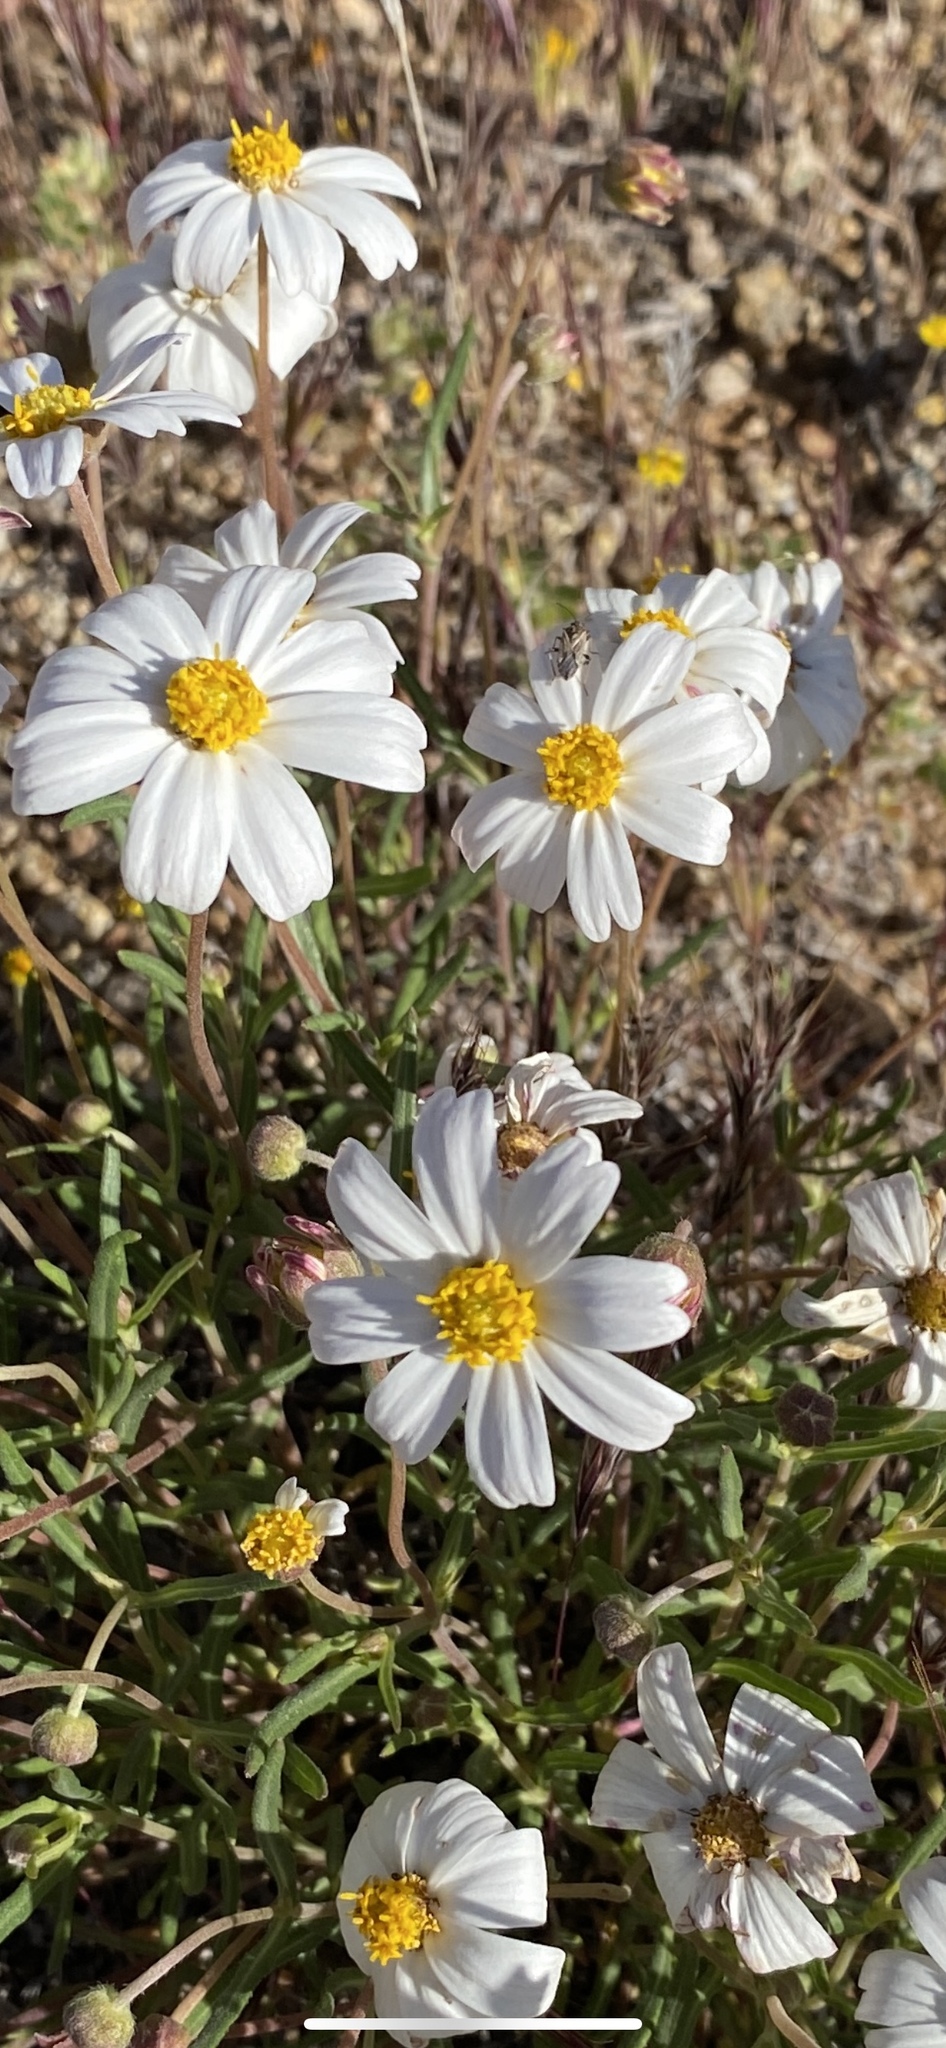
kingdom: Plantae
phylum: Tracheophyta
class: Magnoliopsida
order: Asterales
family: Asteraceae
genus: Melampodium
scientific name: Melampodium leucanthum
